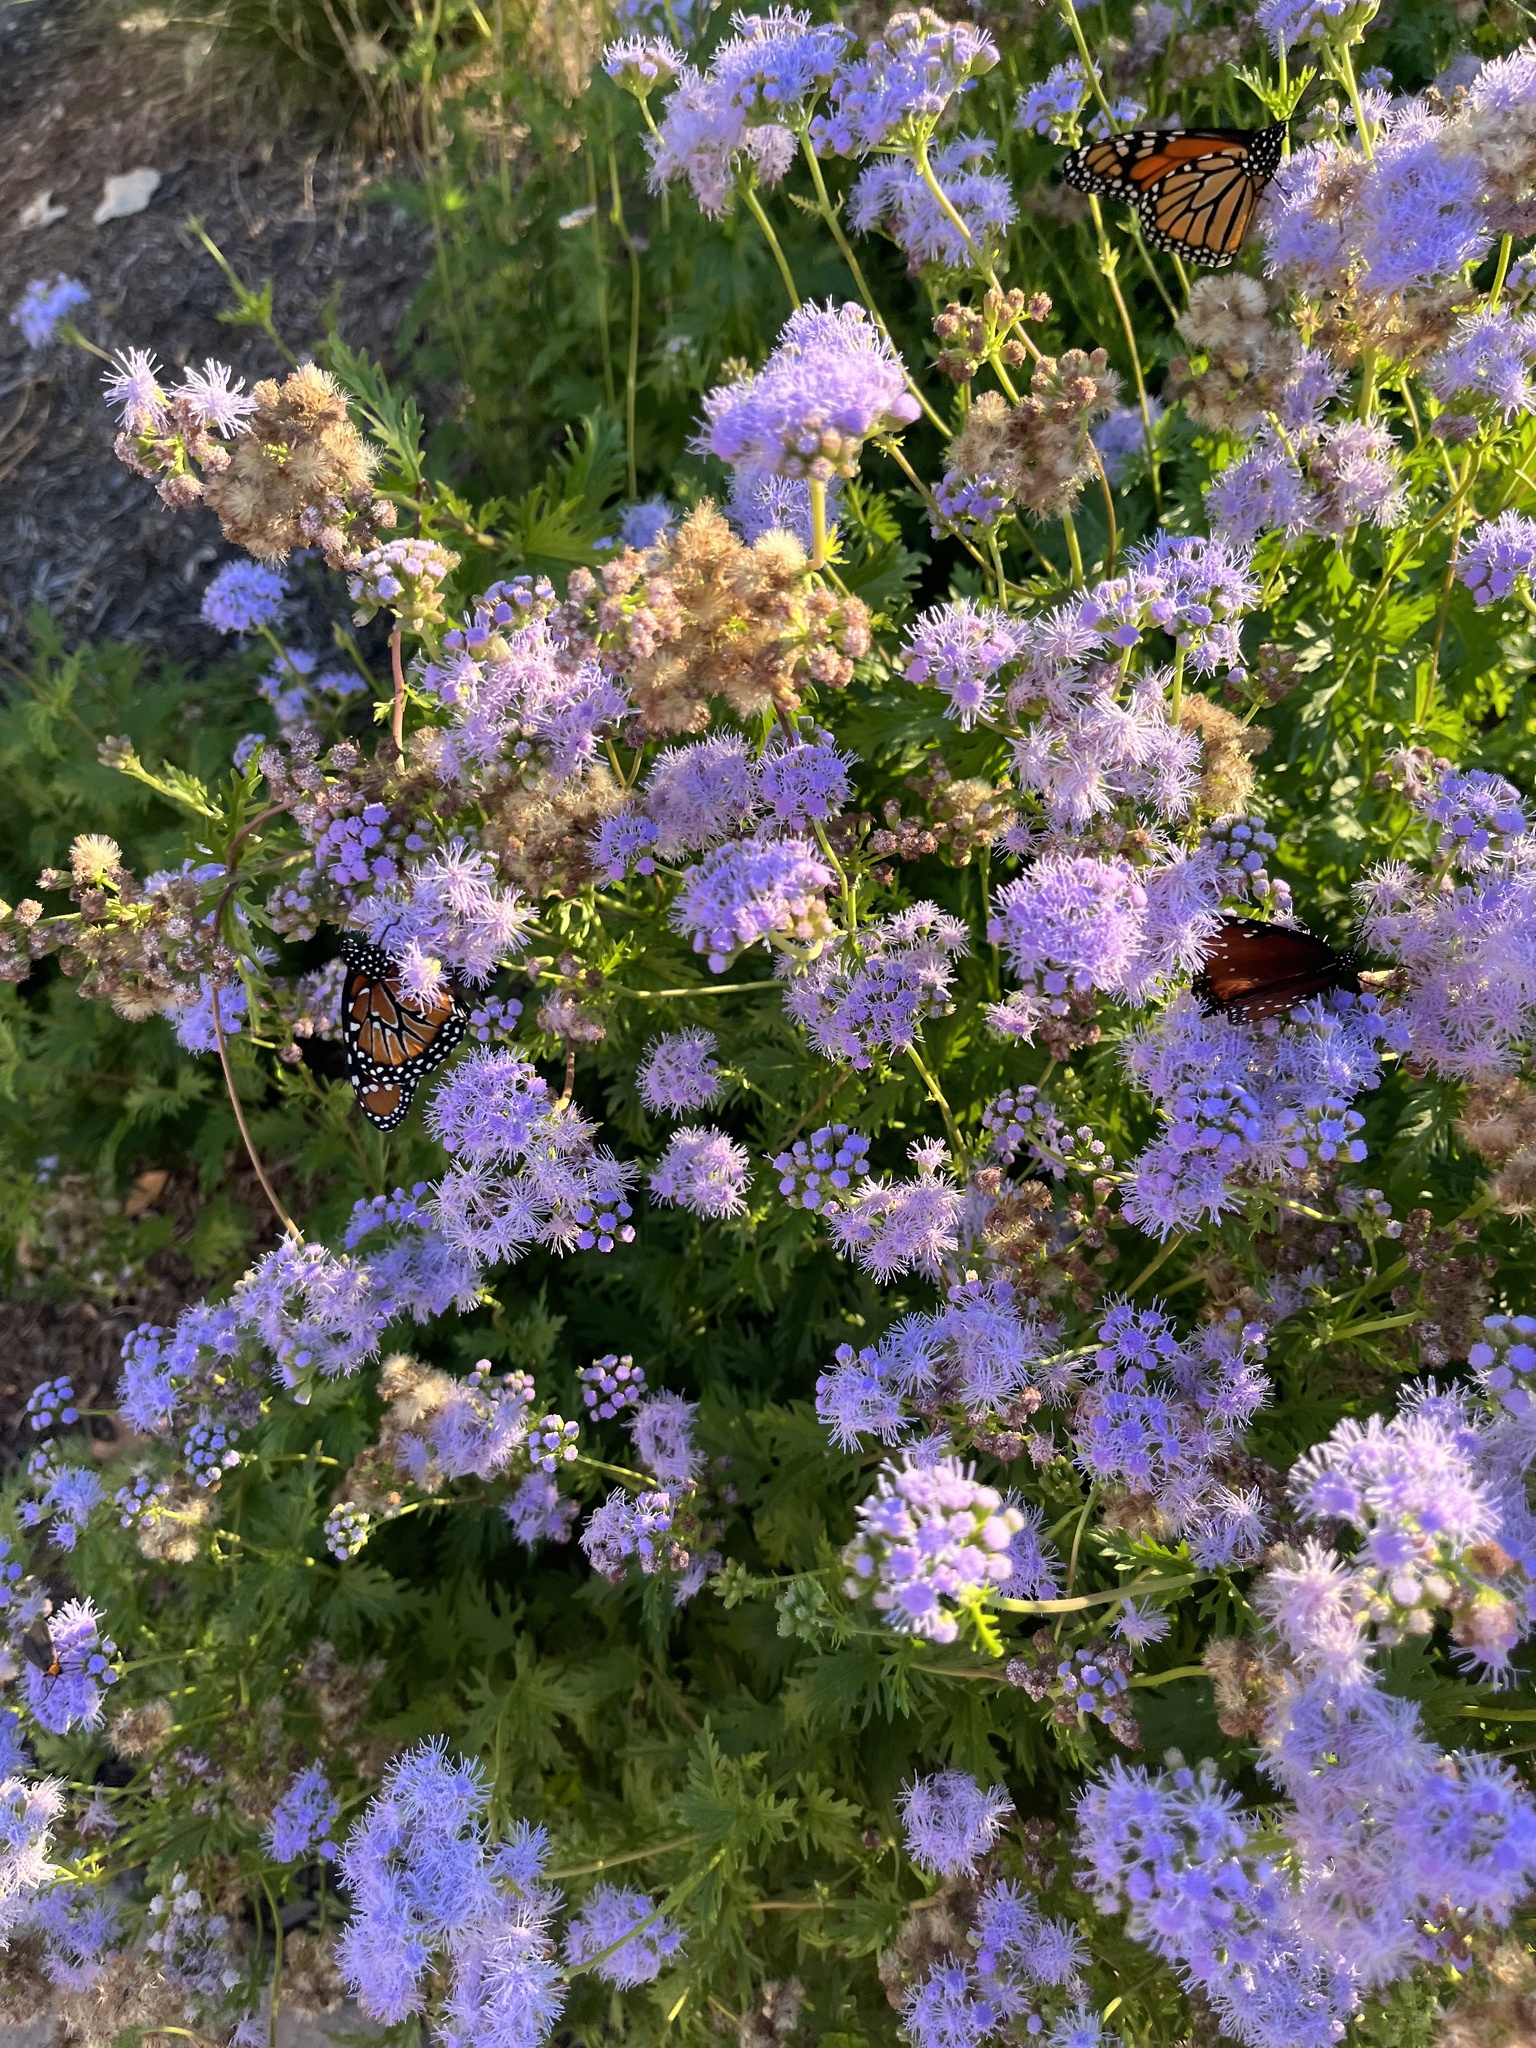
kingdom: Animalia
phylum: Arthropoda
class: Insecta
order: Lepidoptera
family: Nymphalidae
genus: Danaus
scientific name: Danaus plexippus
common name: Monarch
